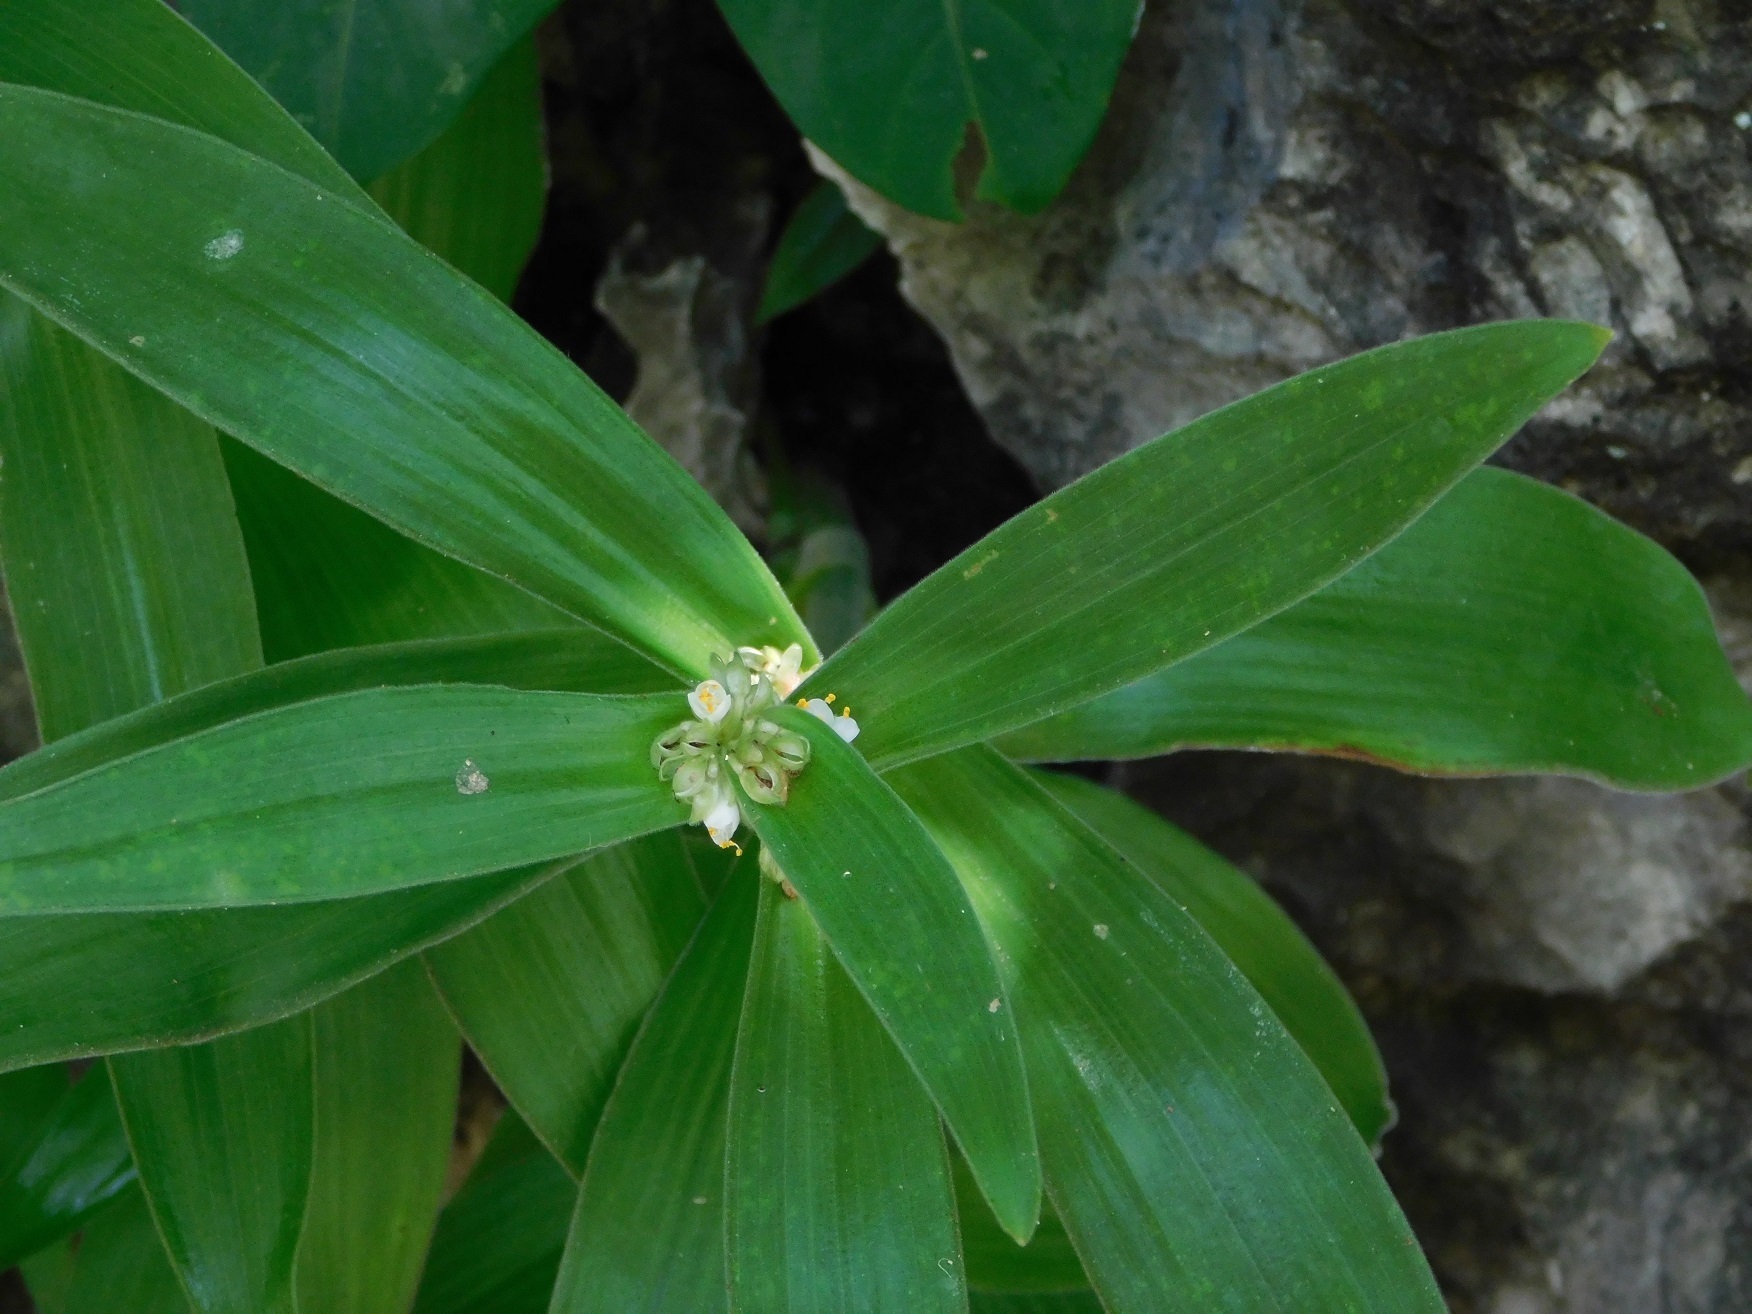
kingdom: Plantae
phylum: Tracheophyta
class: Liliopsida
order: Commelinales
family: Commelinaceae
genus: Tradescantia
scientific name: Tradescantia exaltata
